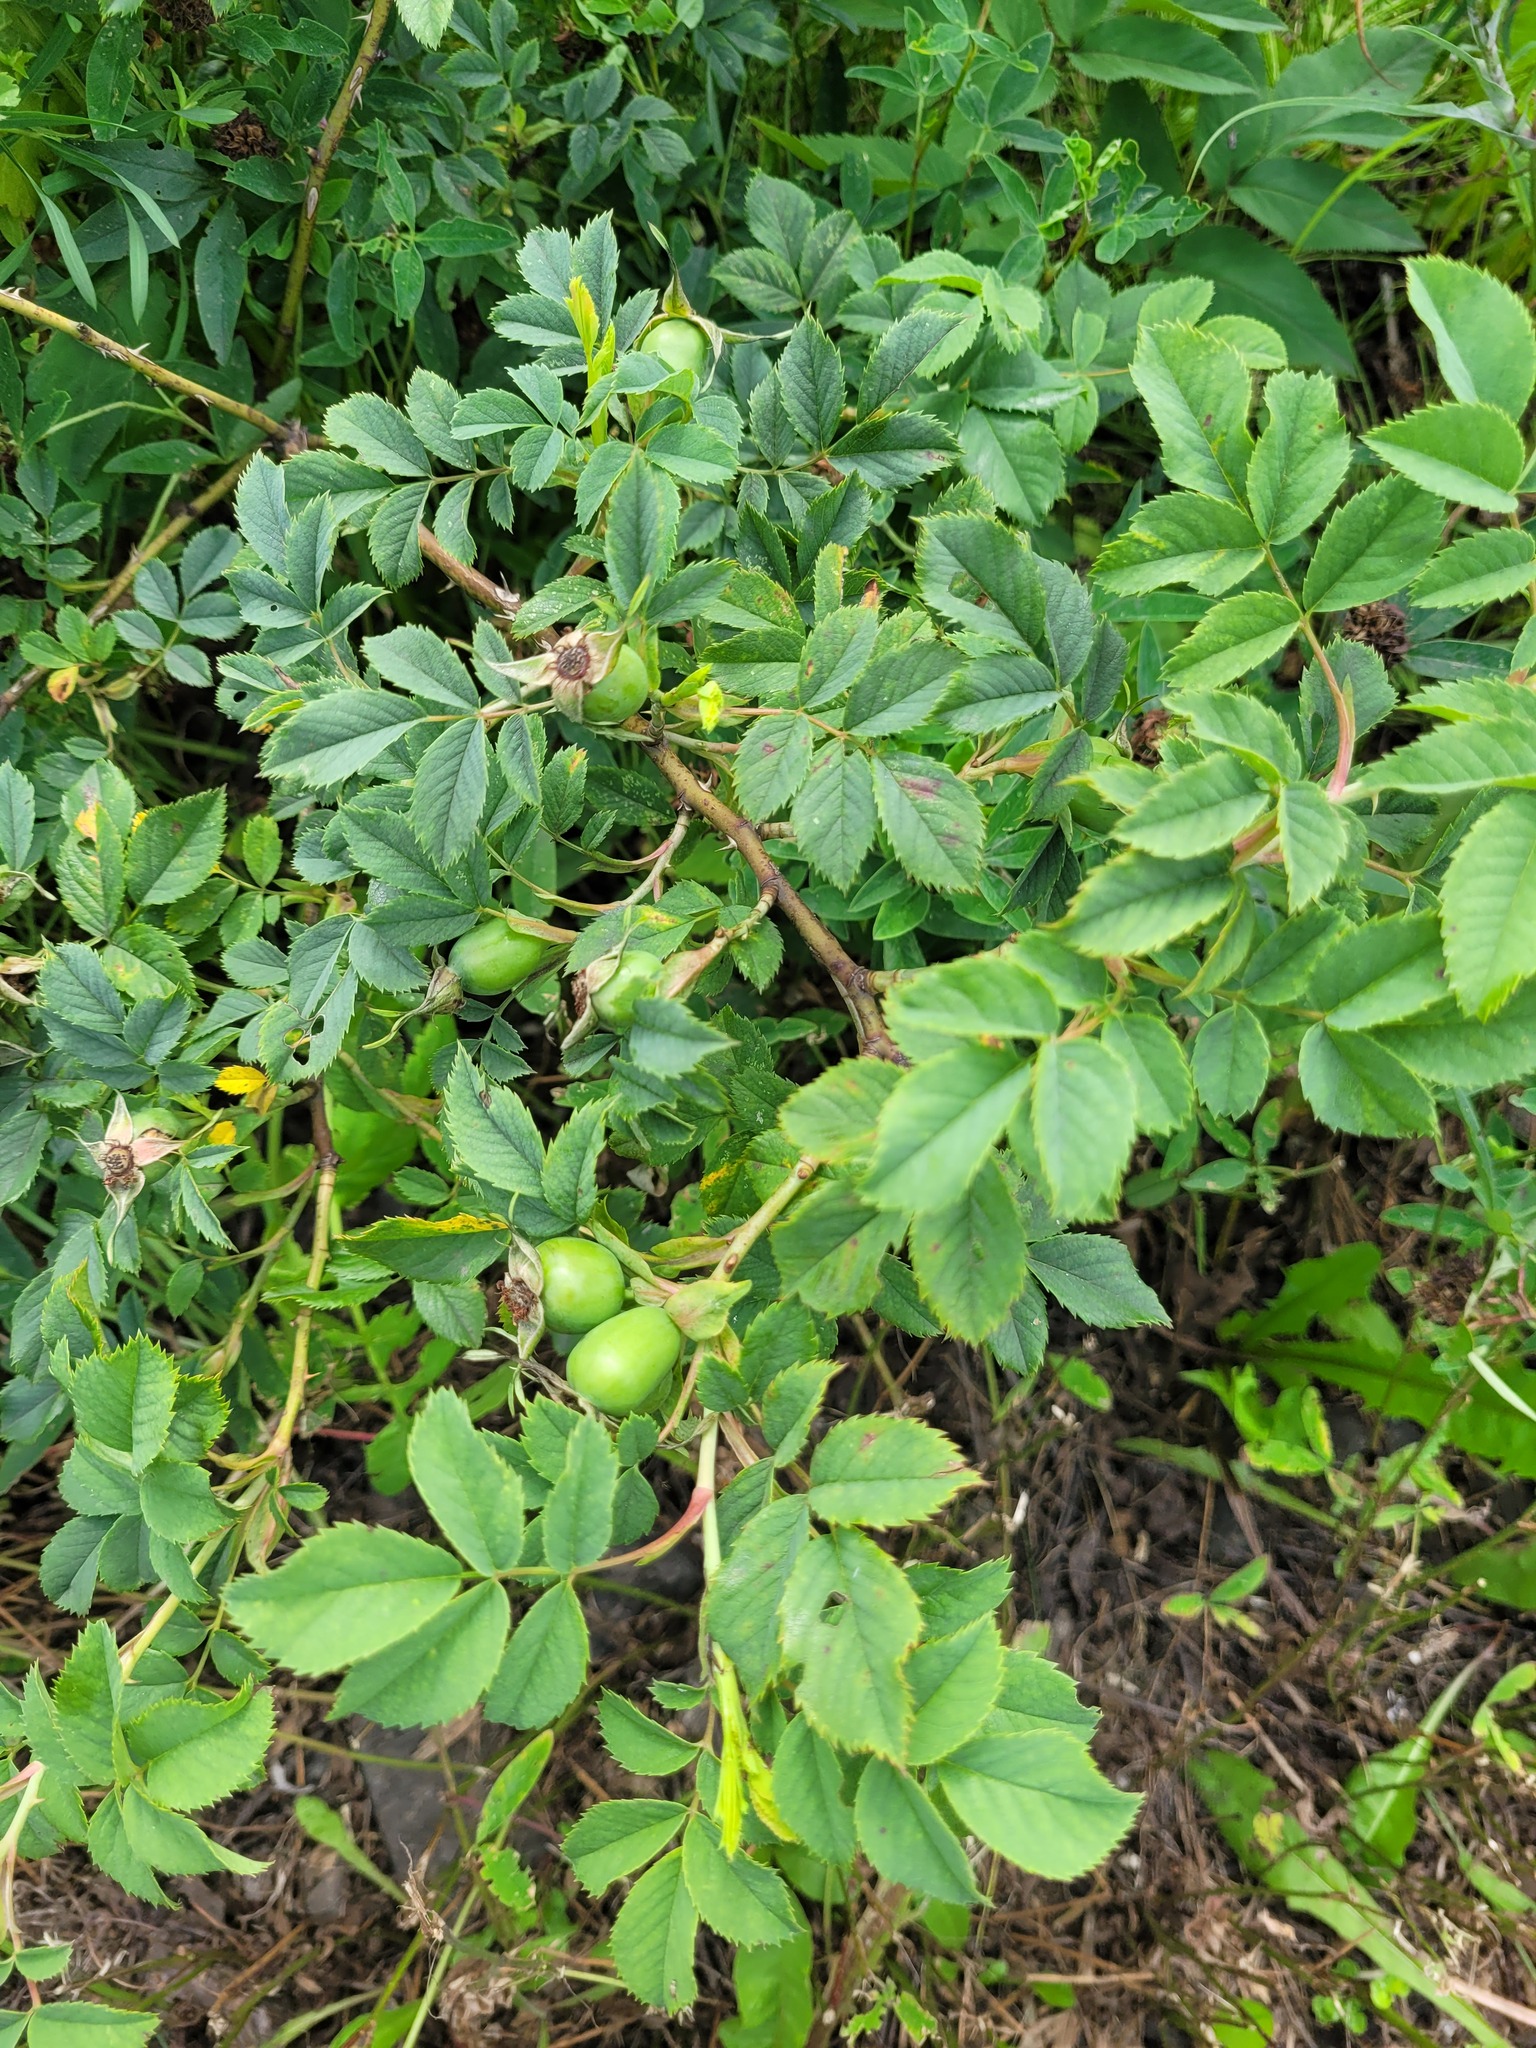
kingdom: Plantae
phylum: Tracheophyta
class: Magnoliopsida
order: Rosales
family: Rosaceae
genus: Rosa
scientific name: Rosa dumalis
